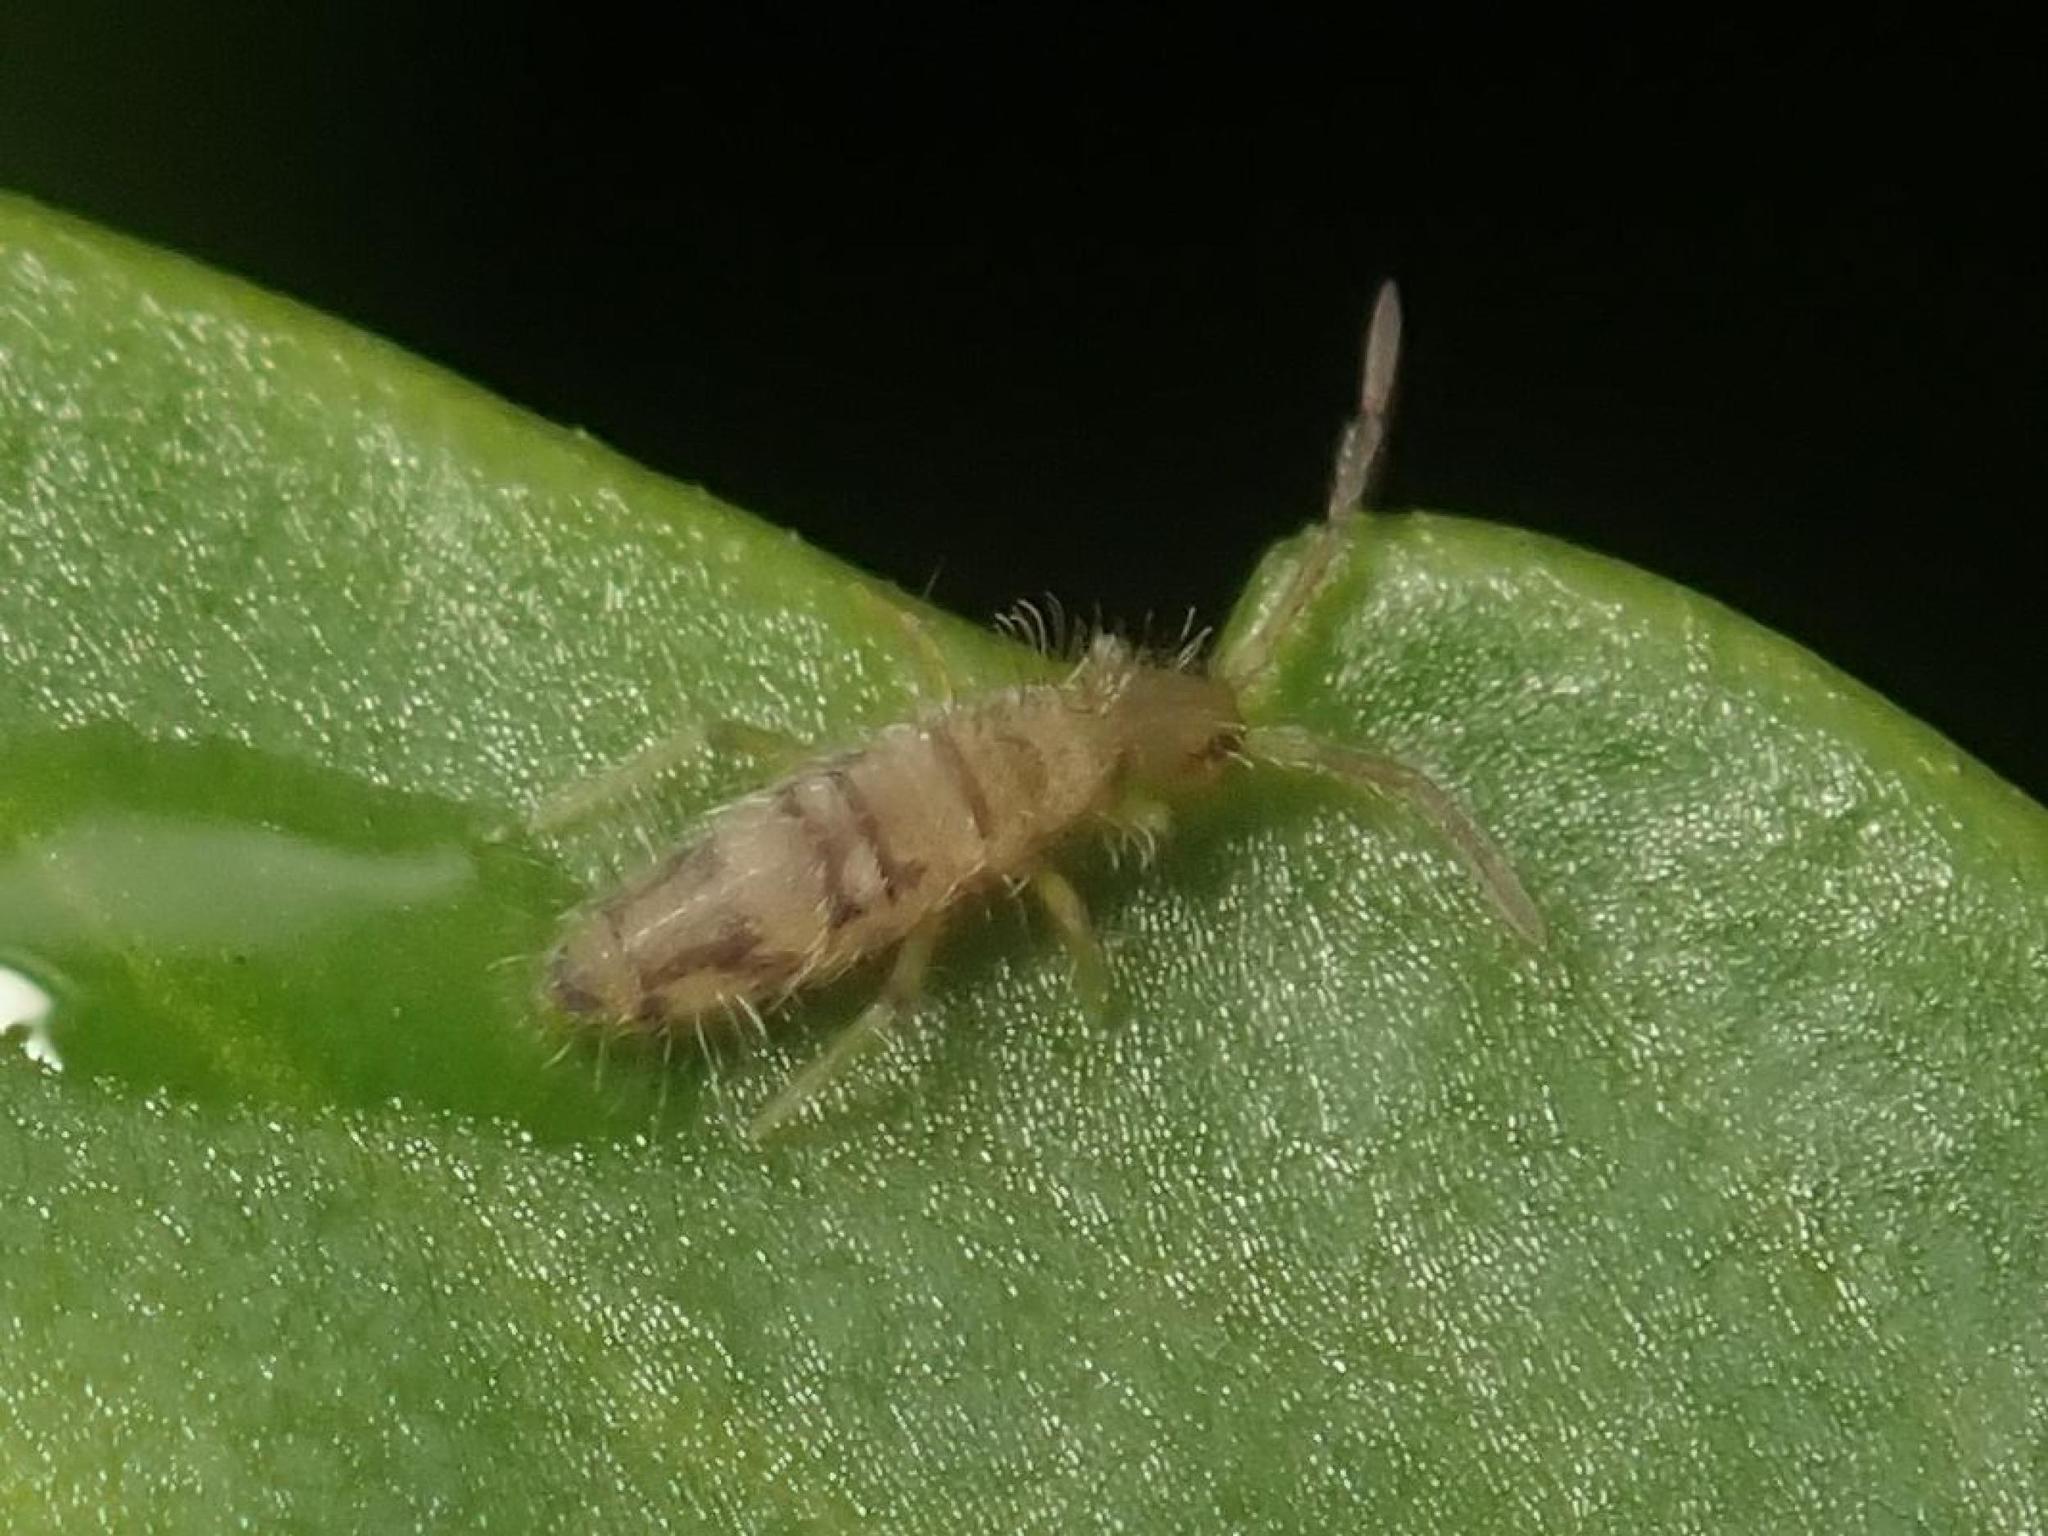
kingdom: Animalia
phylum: Arthropoda
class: Collembola
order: Entomobryomorpha
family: Entomobryidae
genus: Entomobrya
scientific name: Entomobrya nivalis
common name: Cosmopolitan springtail
